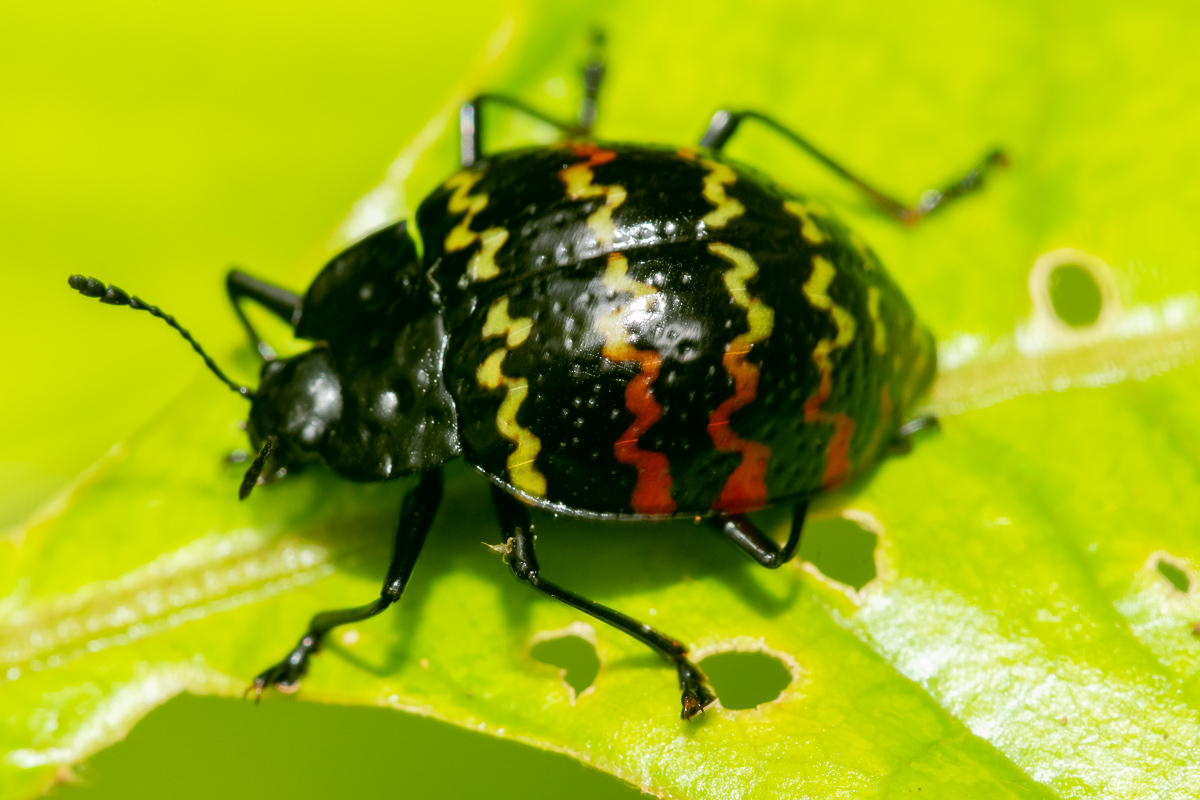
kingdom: Animalia
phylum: Arthropoda
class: Insecta
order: Coleoptera
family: Erotylidae
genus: Erotylus
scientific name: Erotylus
